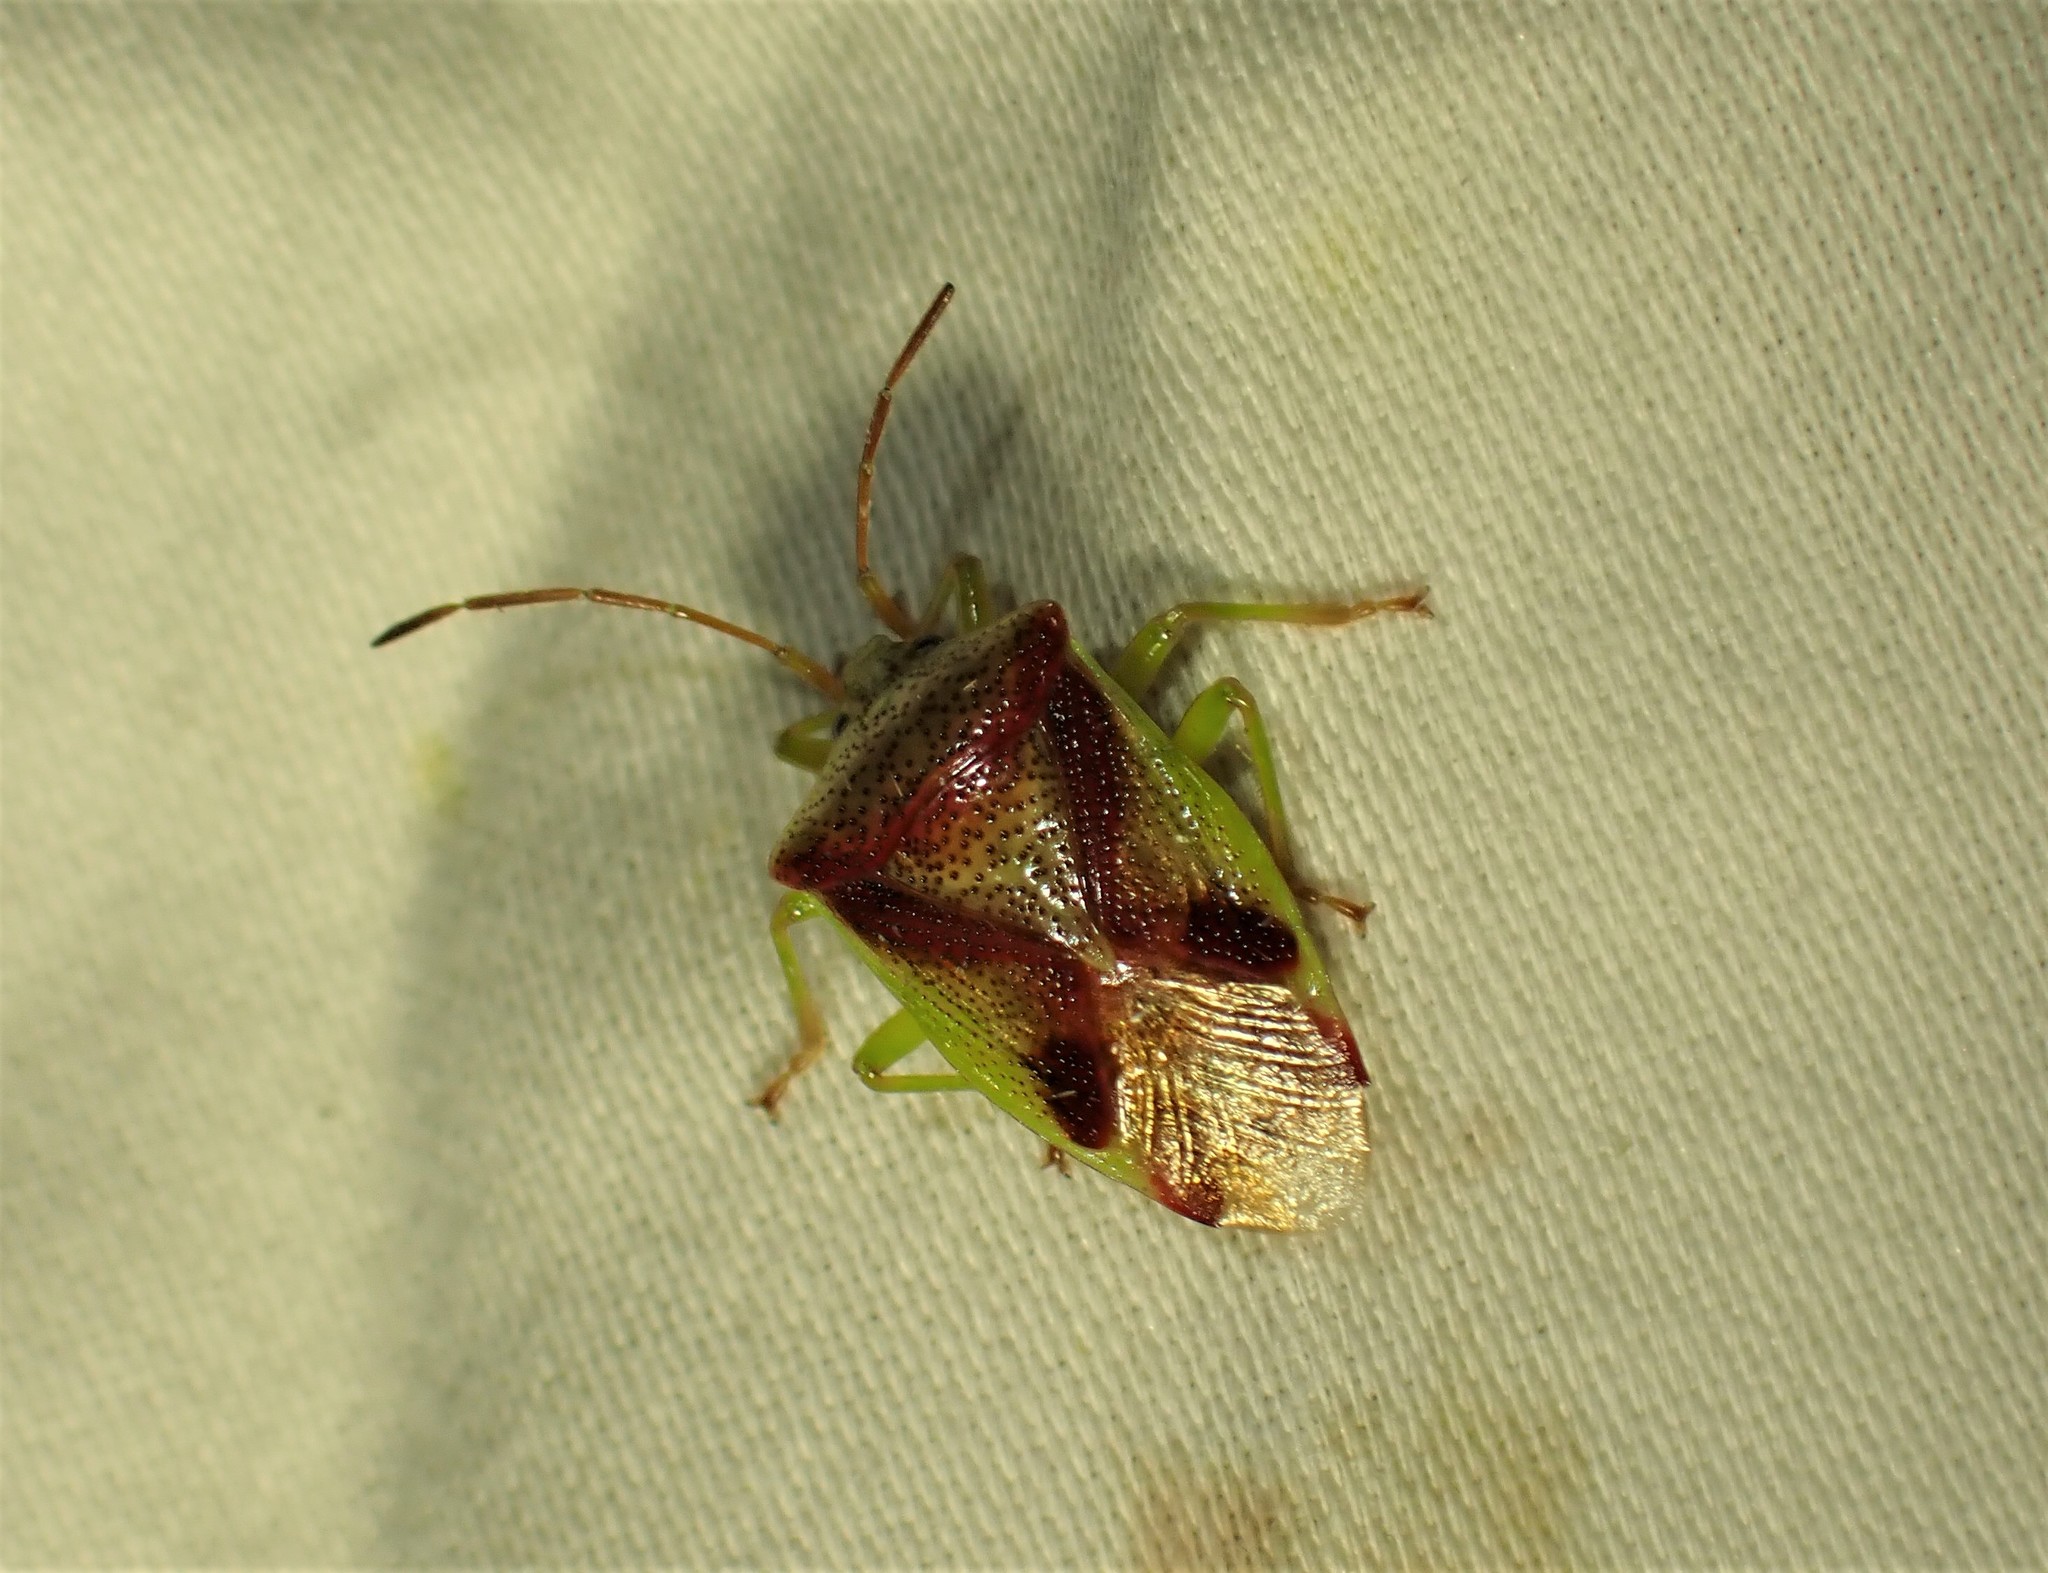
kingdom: Animalia
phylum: Arthropoda
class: Insecta
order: Hemiptera
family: Acanthosomatidae
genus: Elasmostethus
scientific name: Elasmostethus cruciatus
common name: Red-cross shield bug
